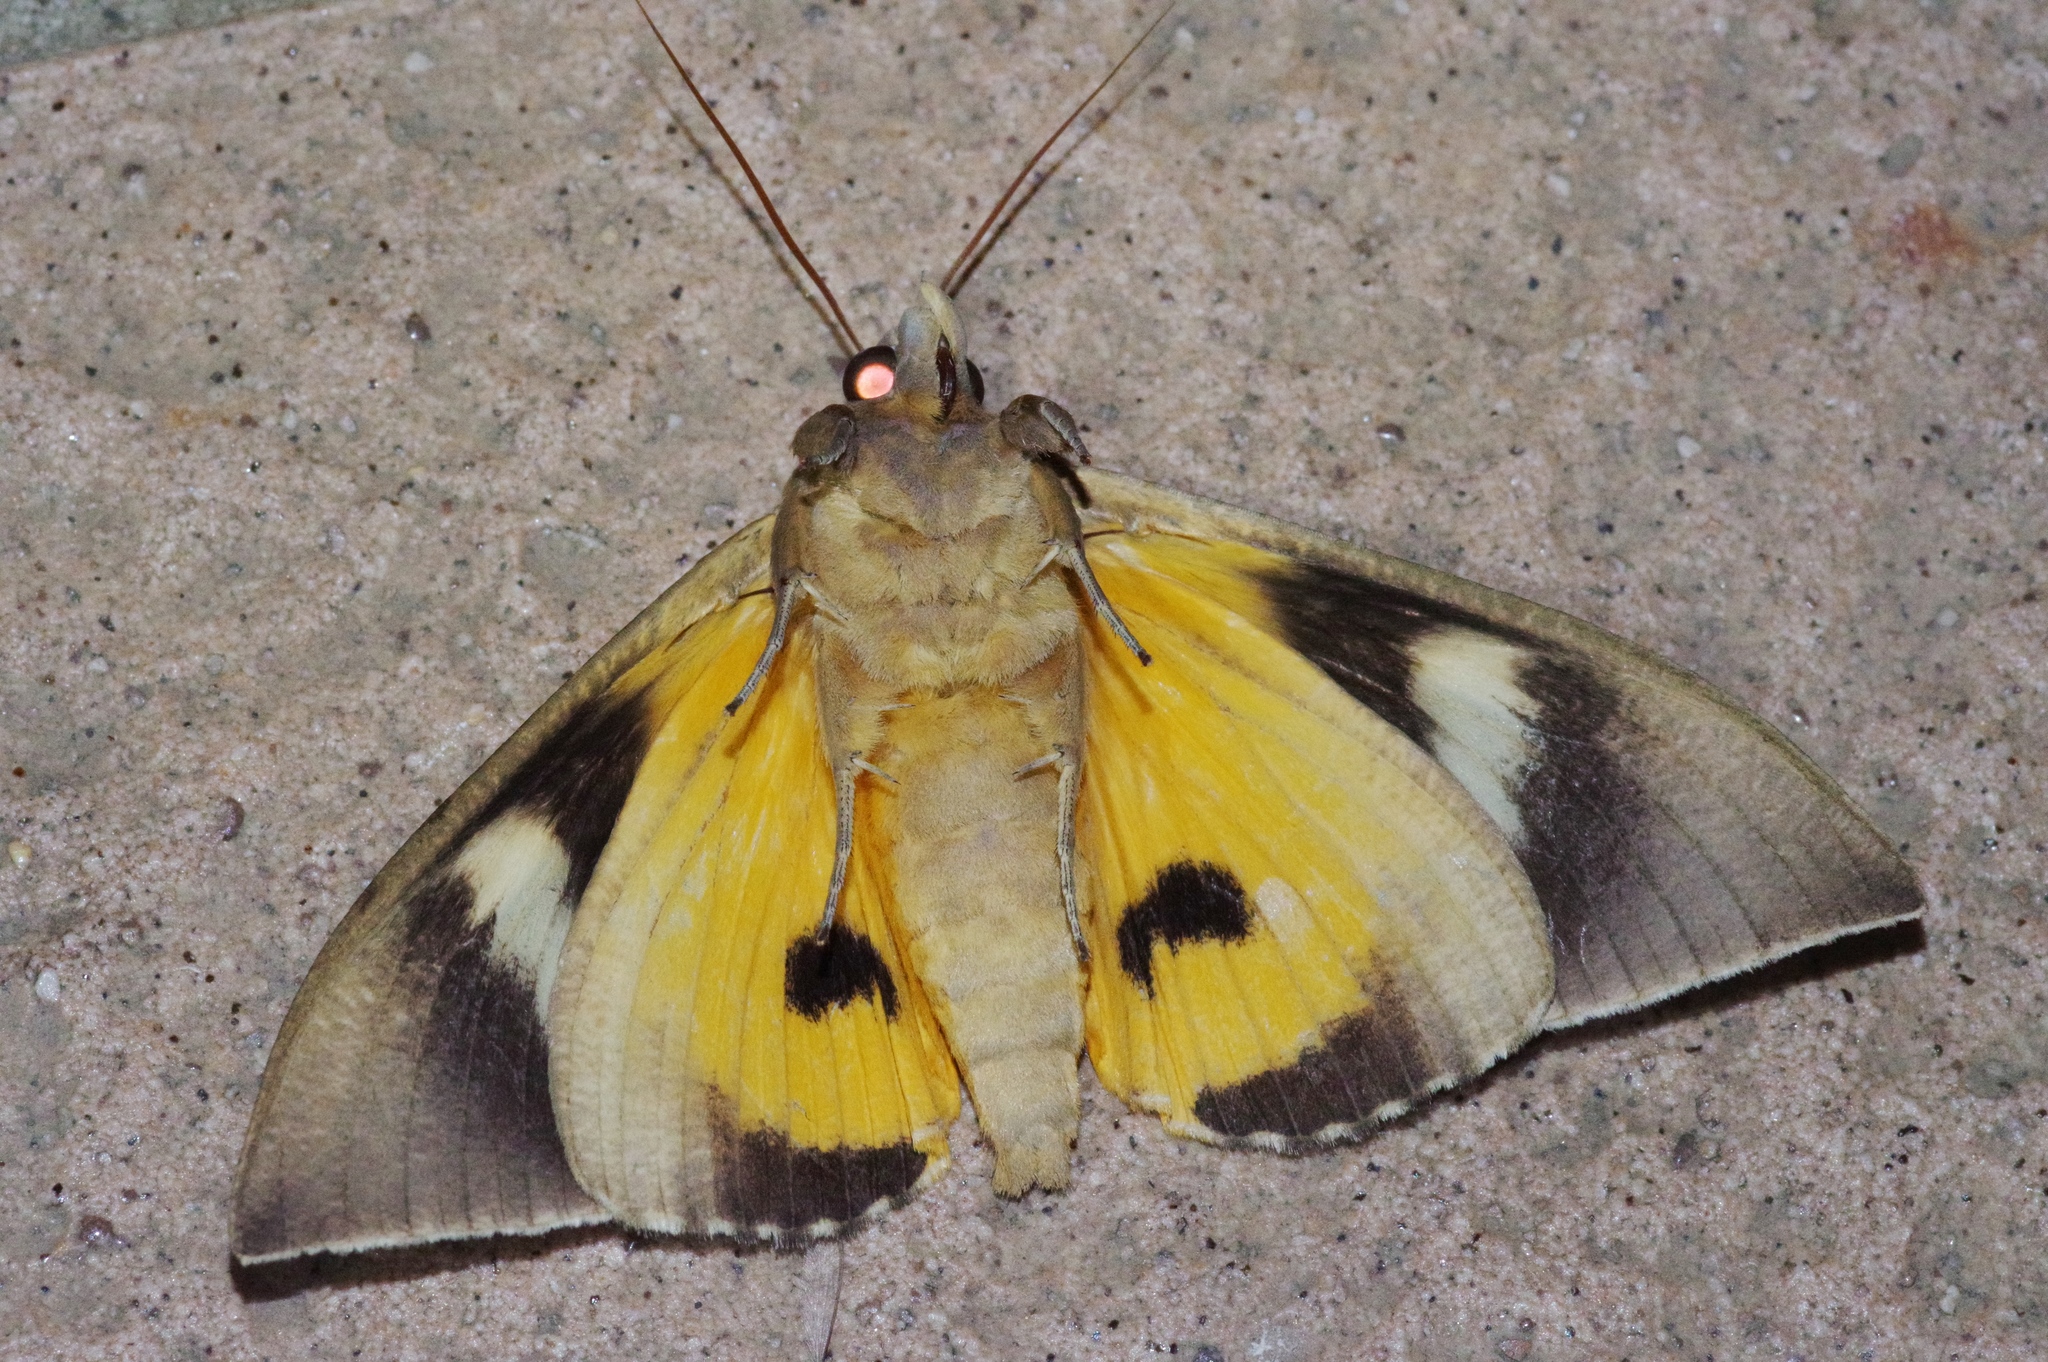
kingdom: Animalia
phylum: Arthropoda
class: Insecta
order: Lepidoptera
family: Erebidae
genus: Eudocima
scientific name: Eudocima salaminia
